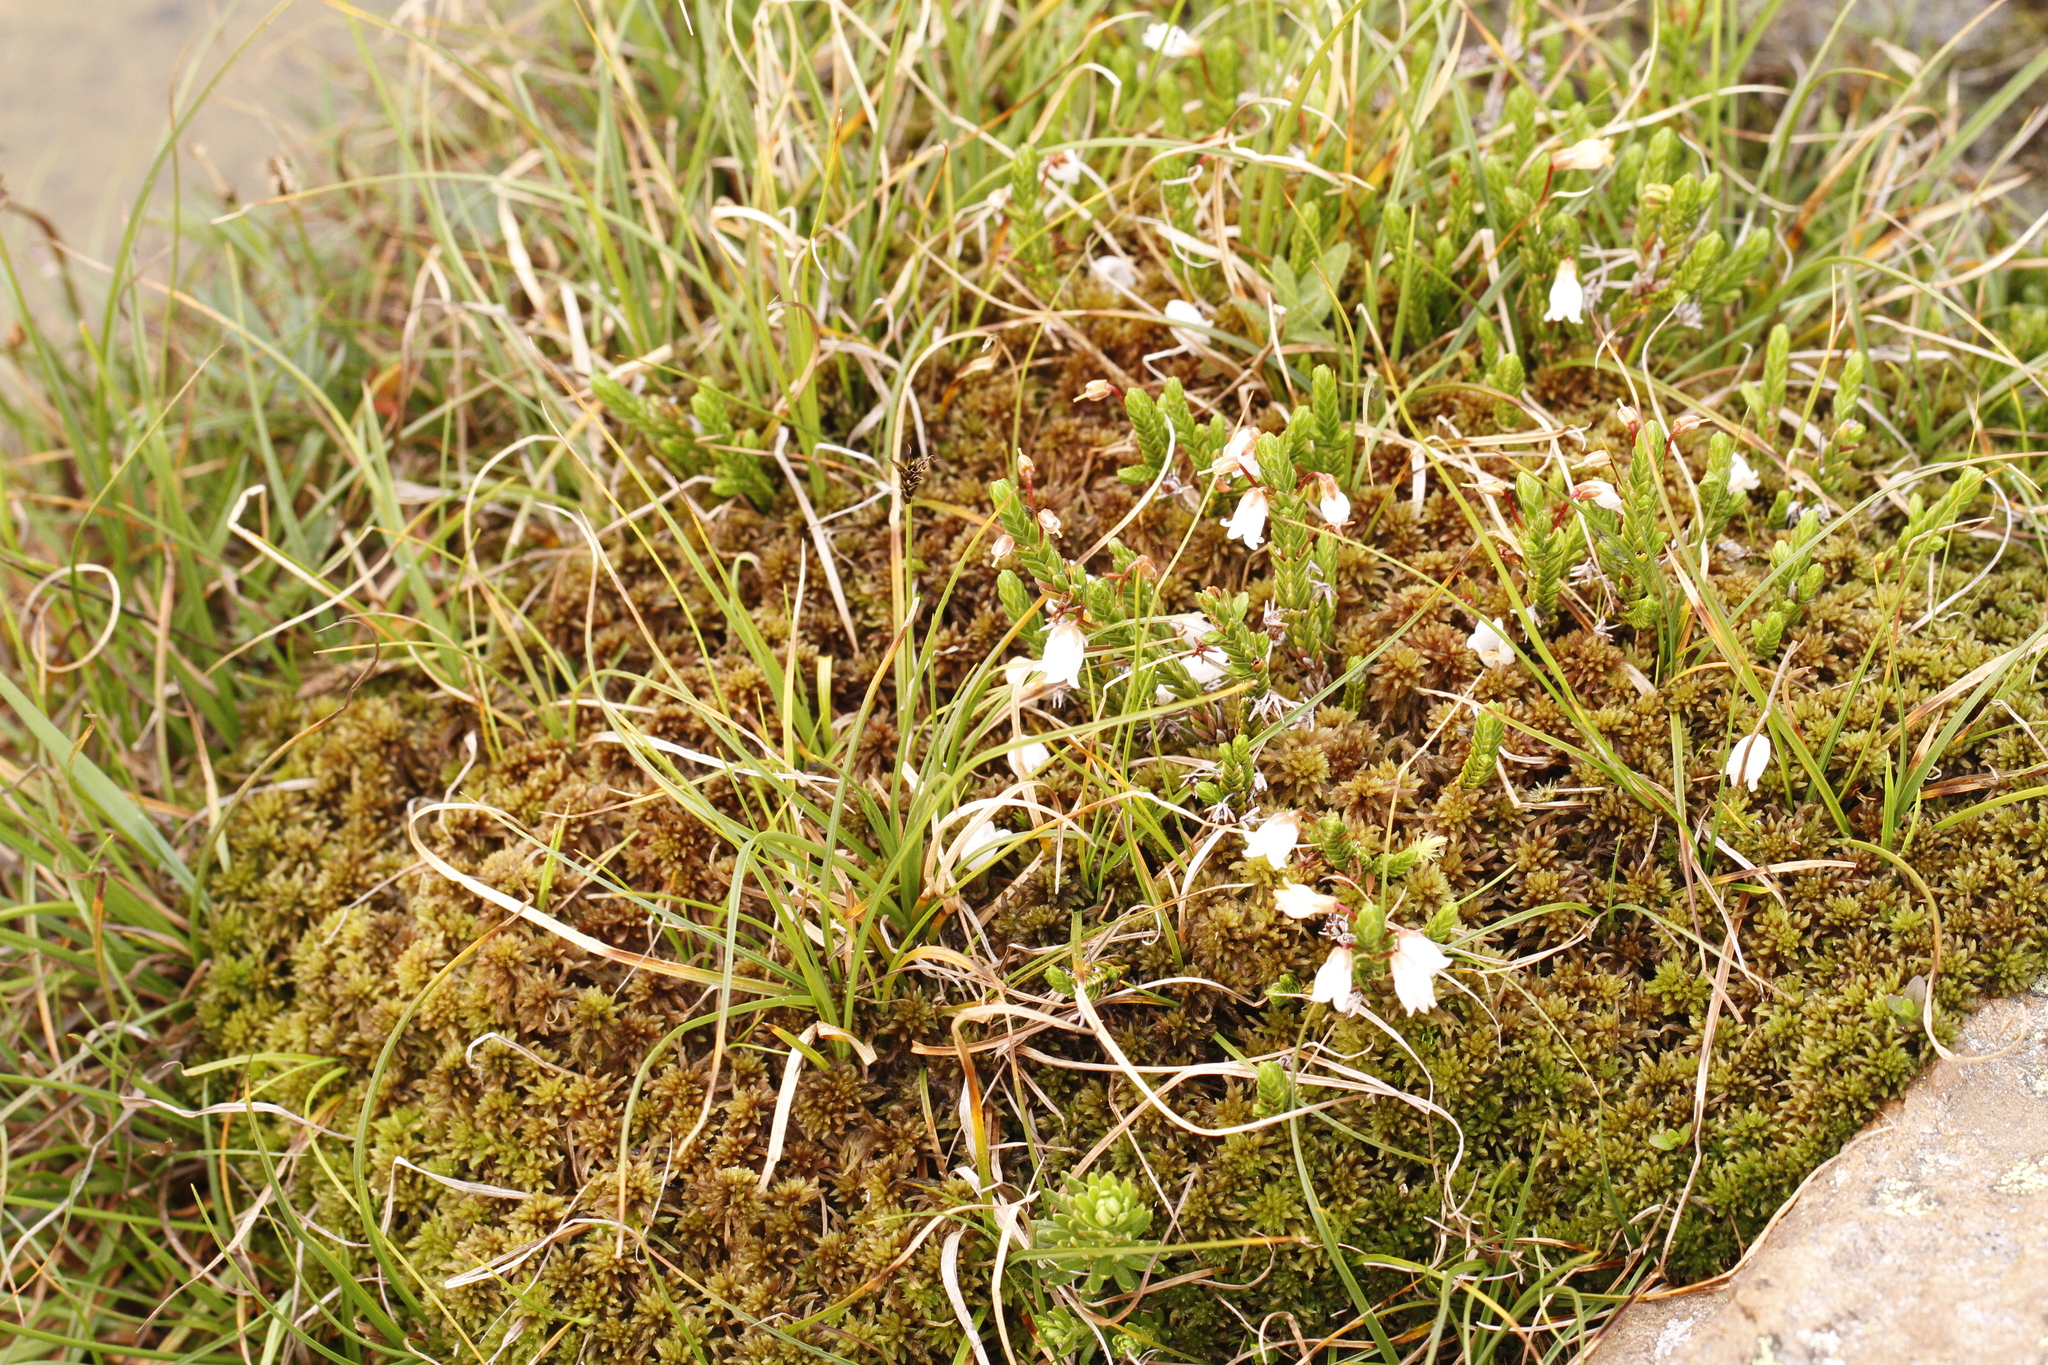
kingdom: Plantae
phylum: Tracheophyta
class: Magnoliopsida
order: Ericales
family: Ericaceae
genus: Cassiope
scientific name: Cassiope tetragona
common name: Arctic bell heather
